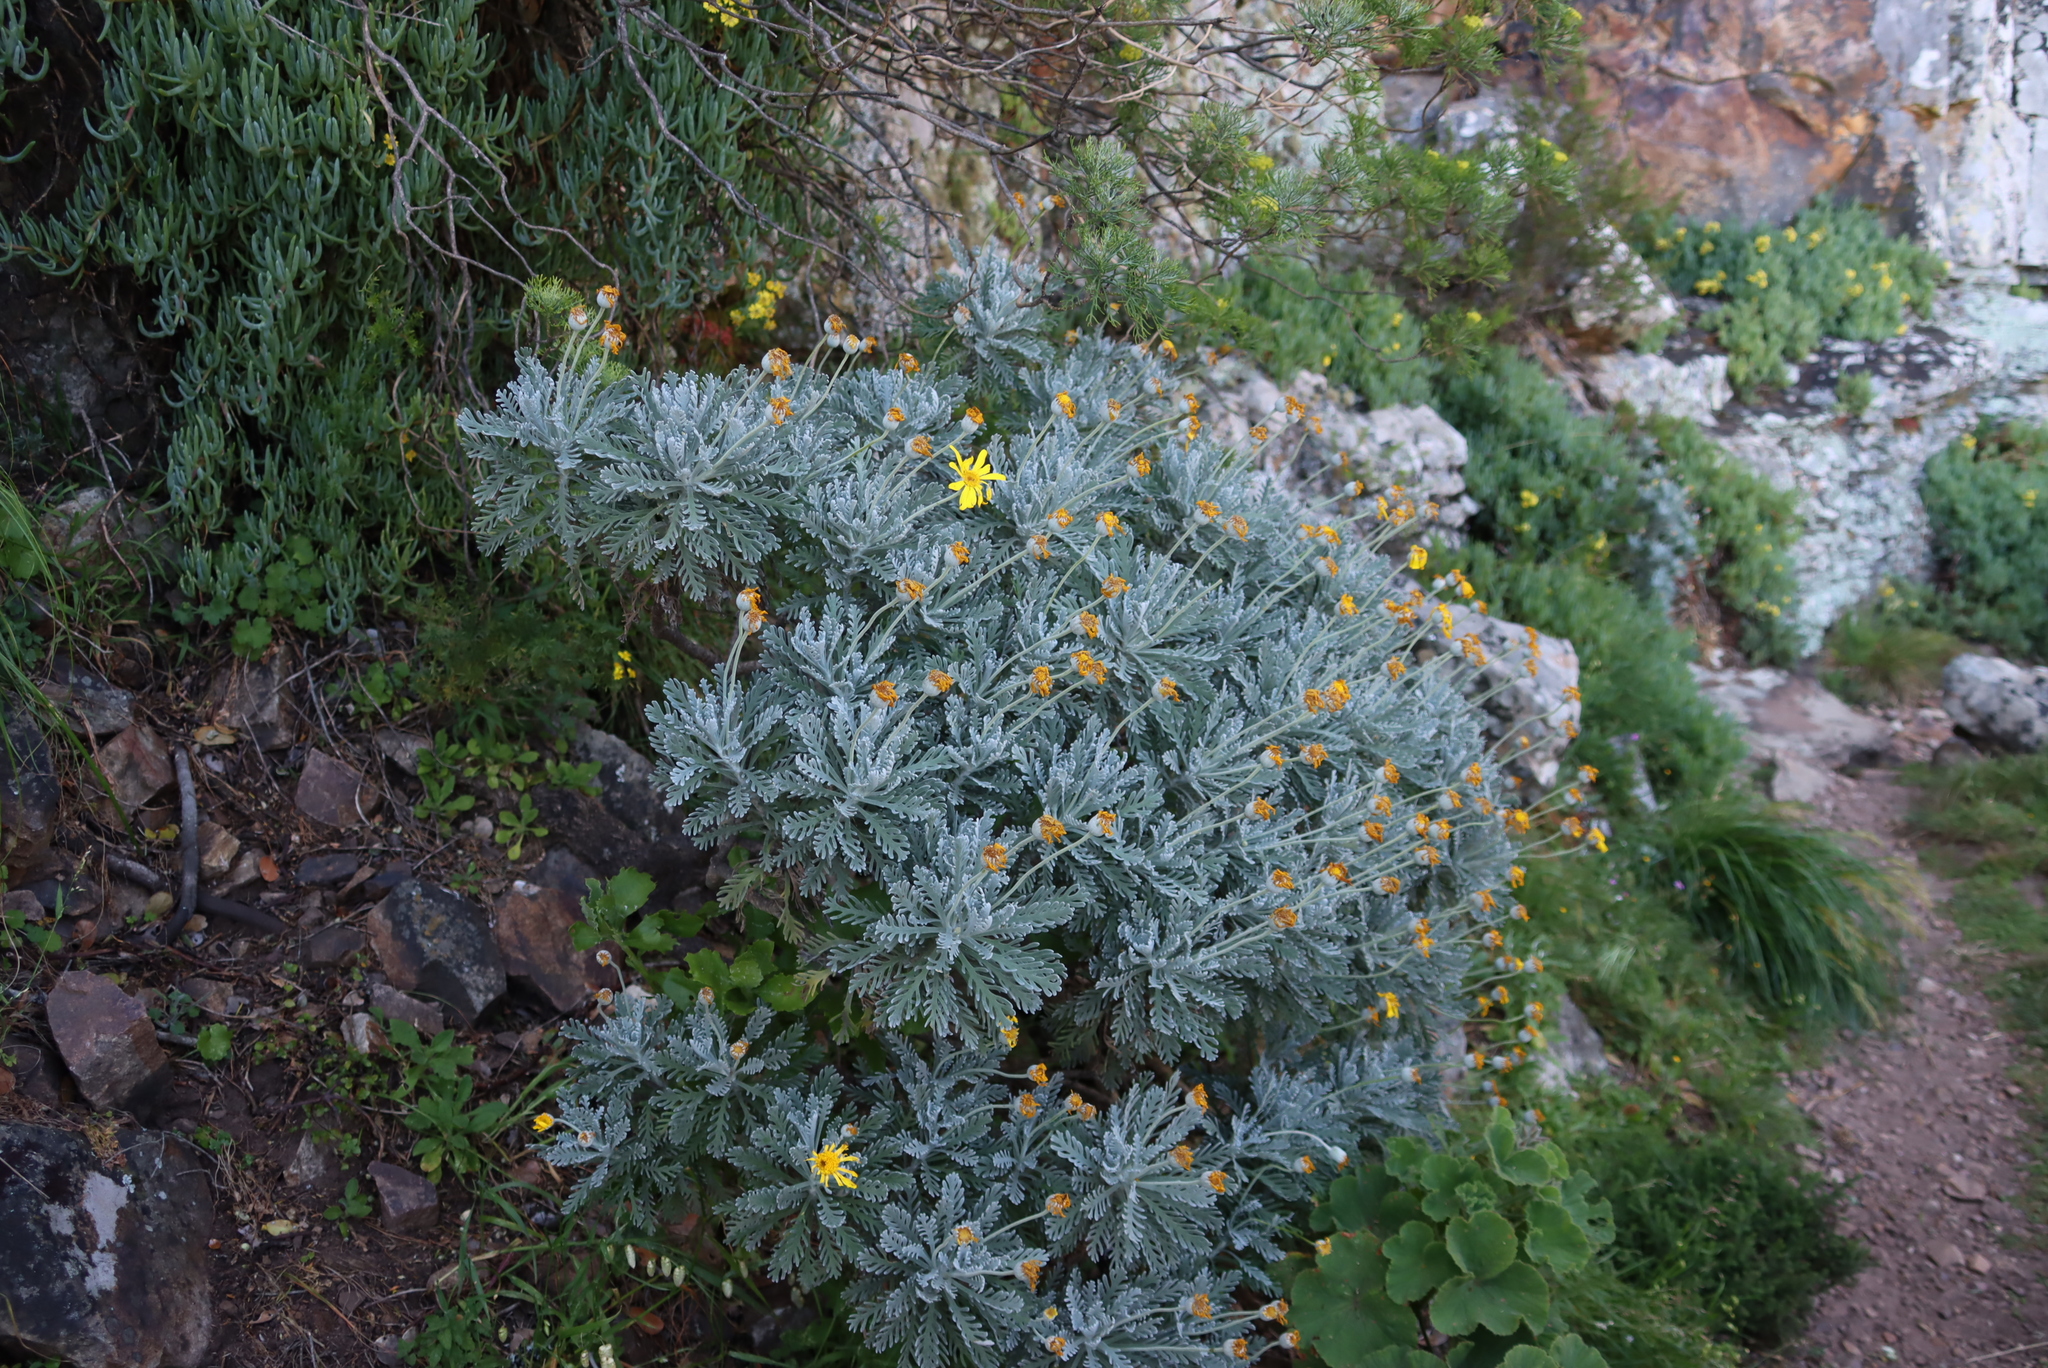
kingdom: Plantae
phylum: Tracheophyta
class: Magnoliopsida
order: Asterales
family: Asteraceae
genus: Euryops
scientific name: Euryops pectinatus
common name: Gray-leaf euryops
